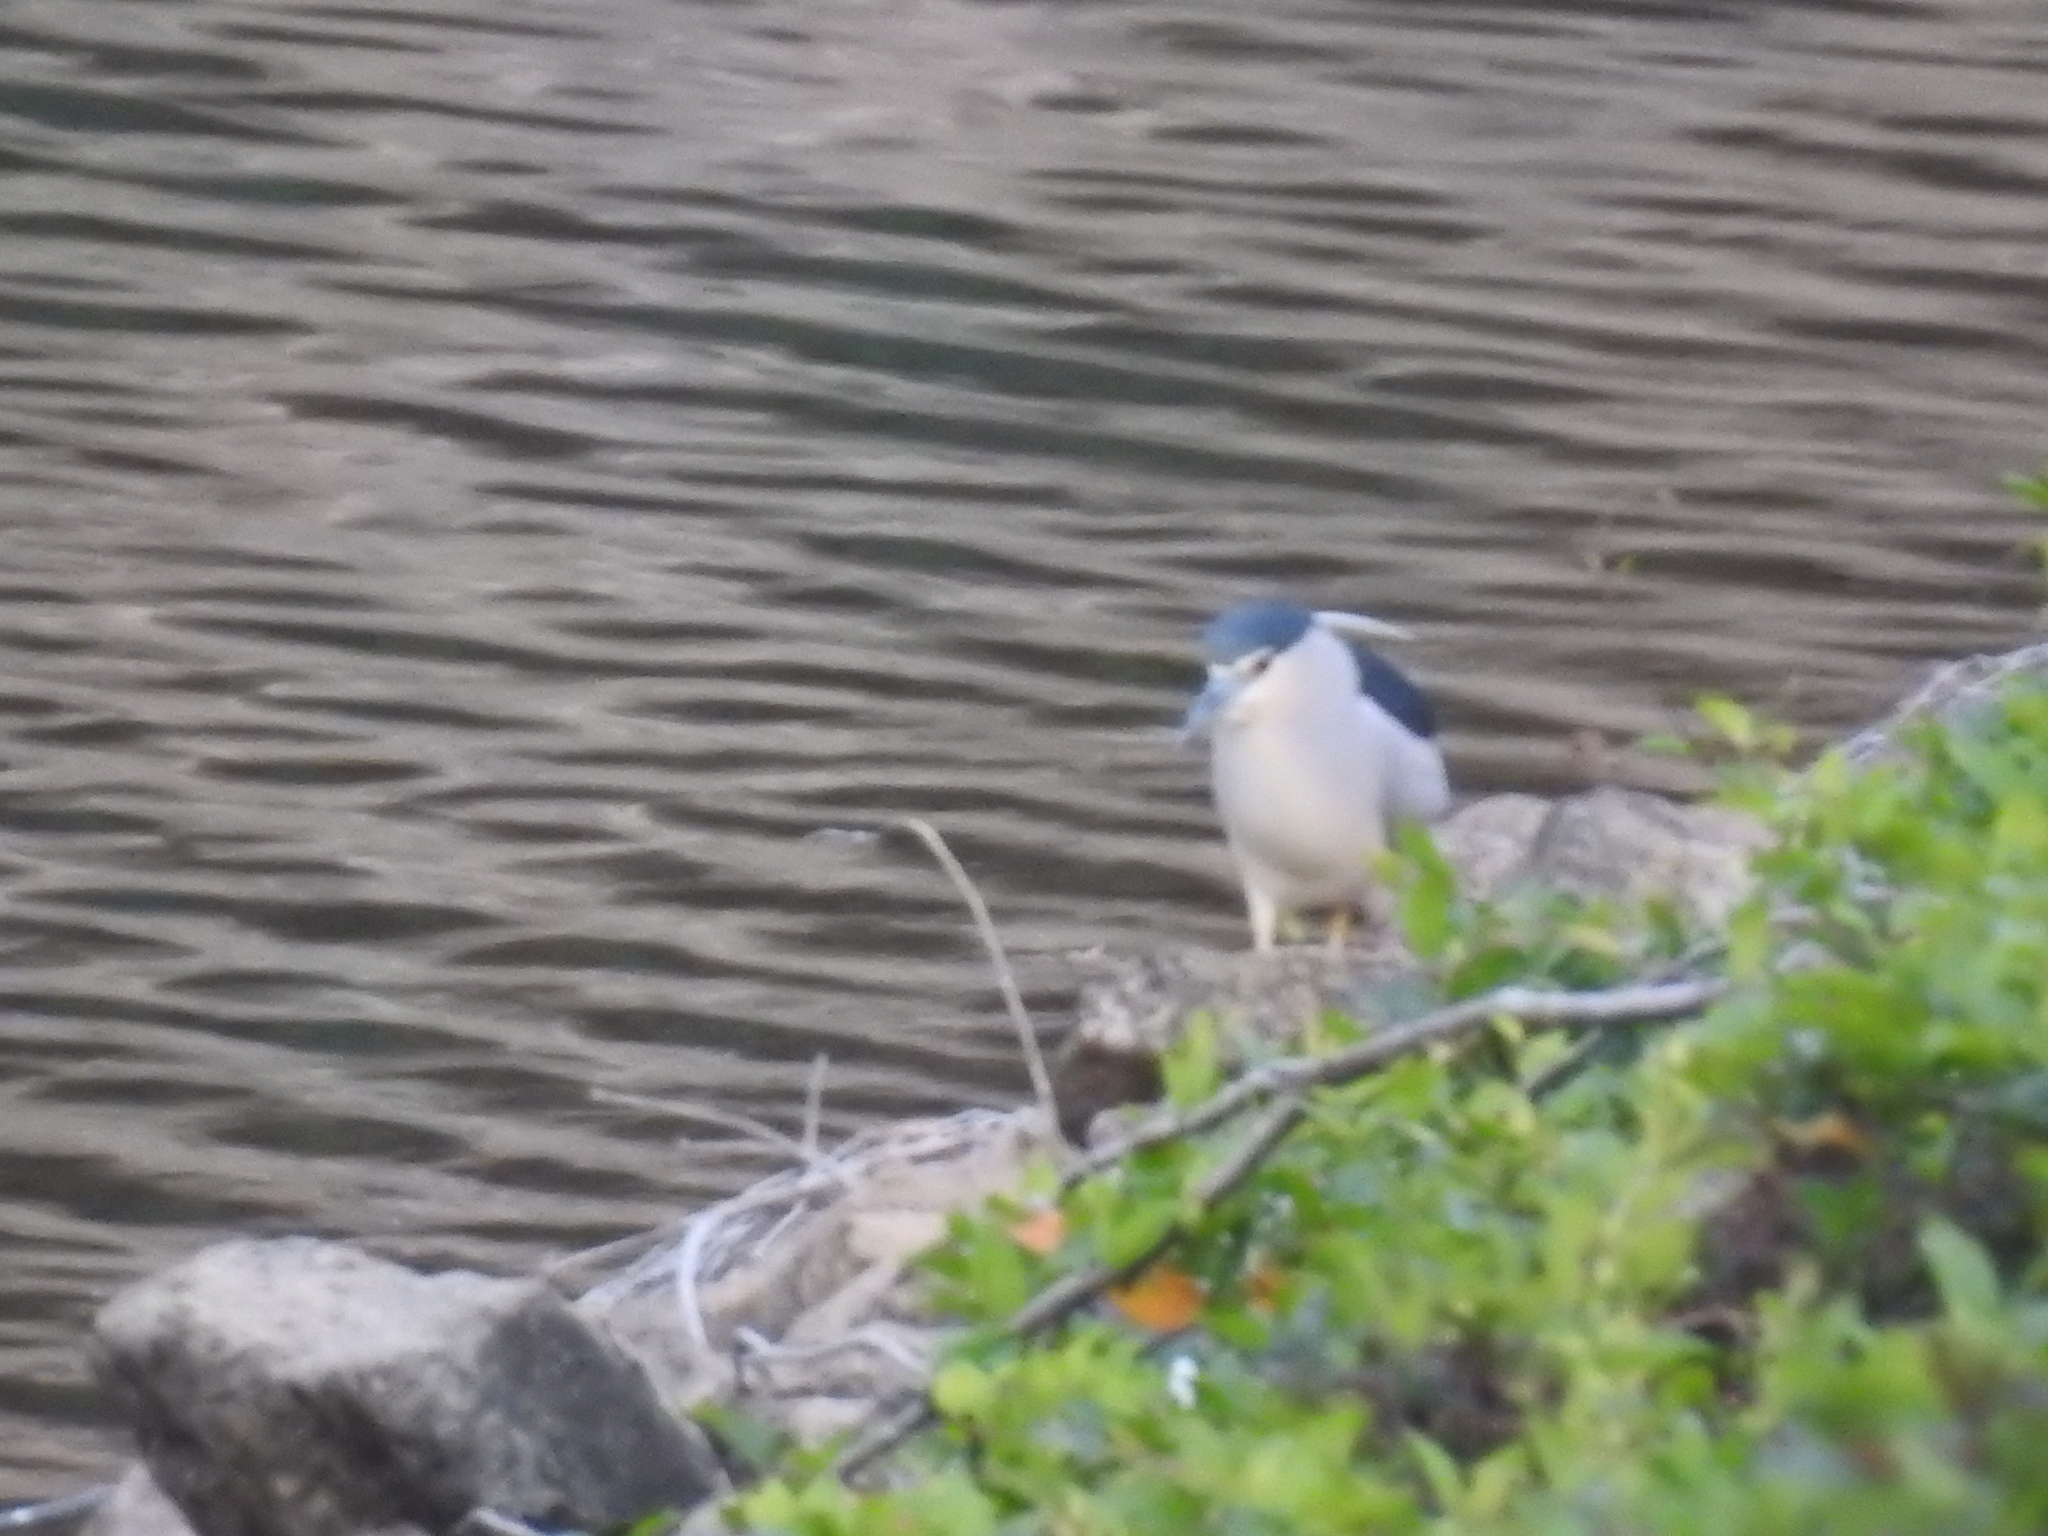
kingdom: Animalia
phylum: Chordata
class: Aves
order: Pelecaniformes
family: Ardeidae
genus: Nycticorax
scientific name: Nycticorax nycticorax
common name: Black-crowned night heron
